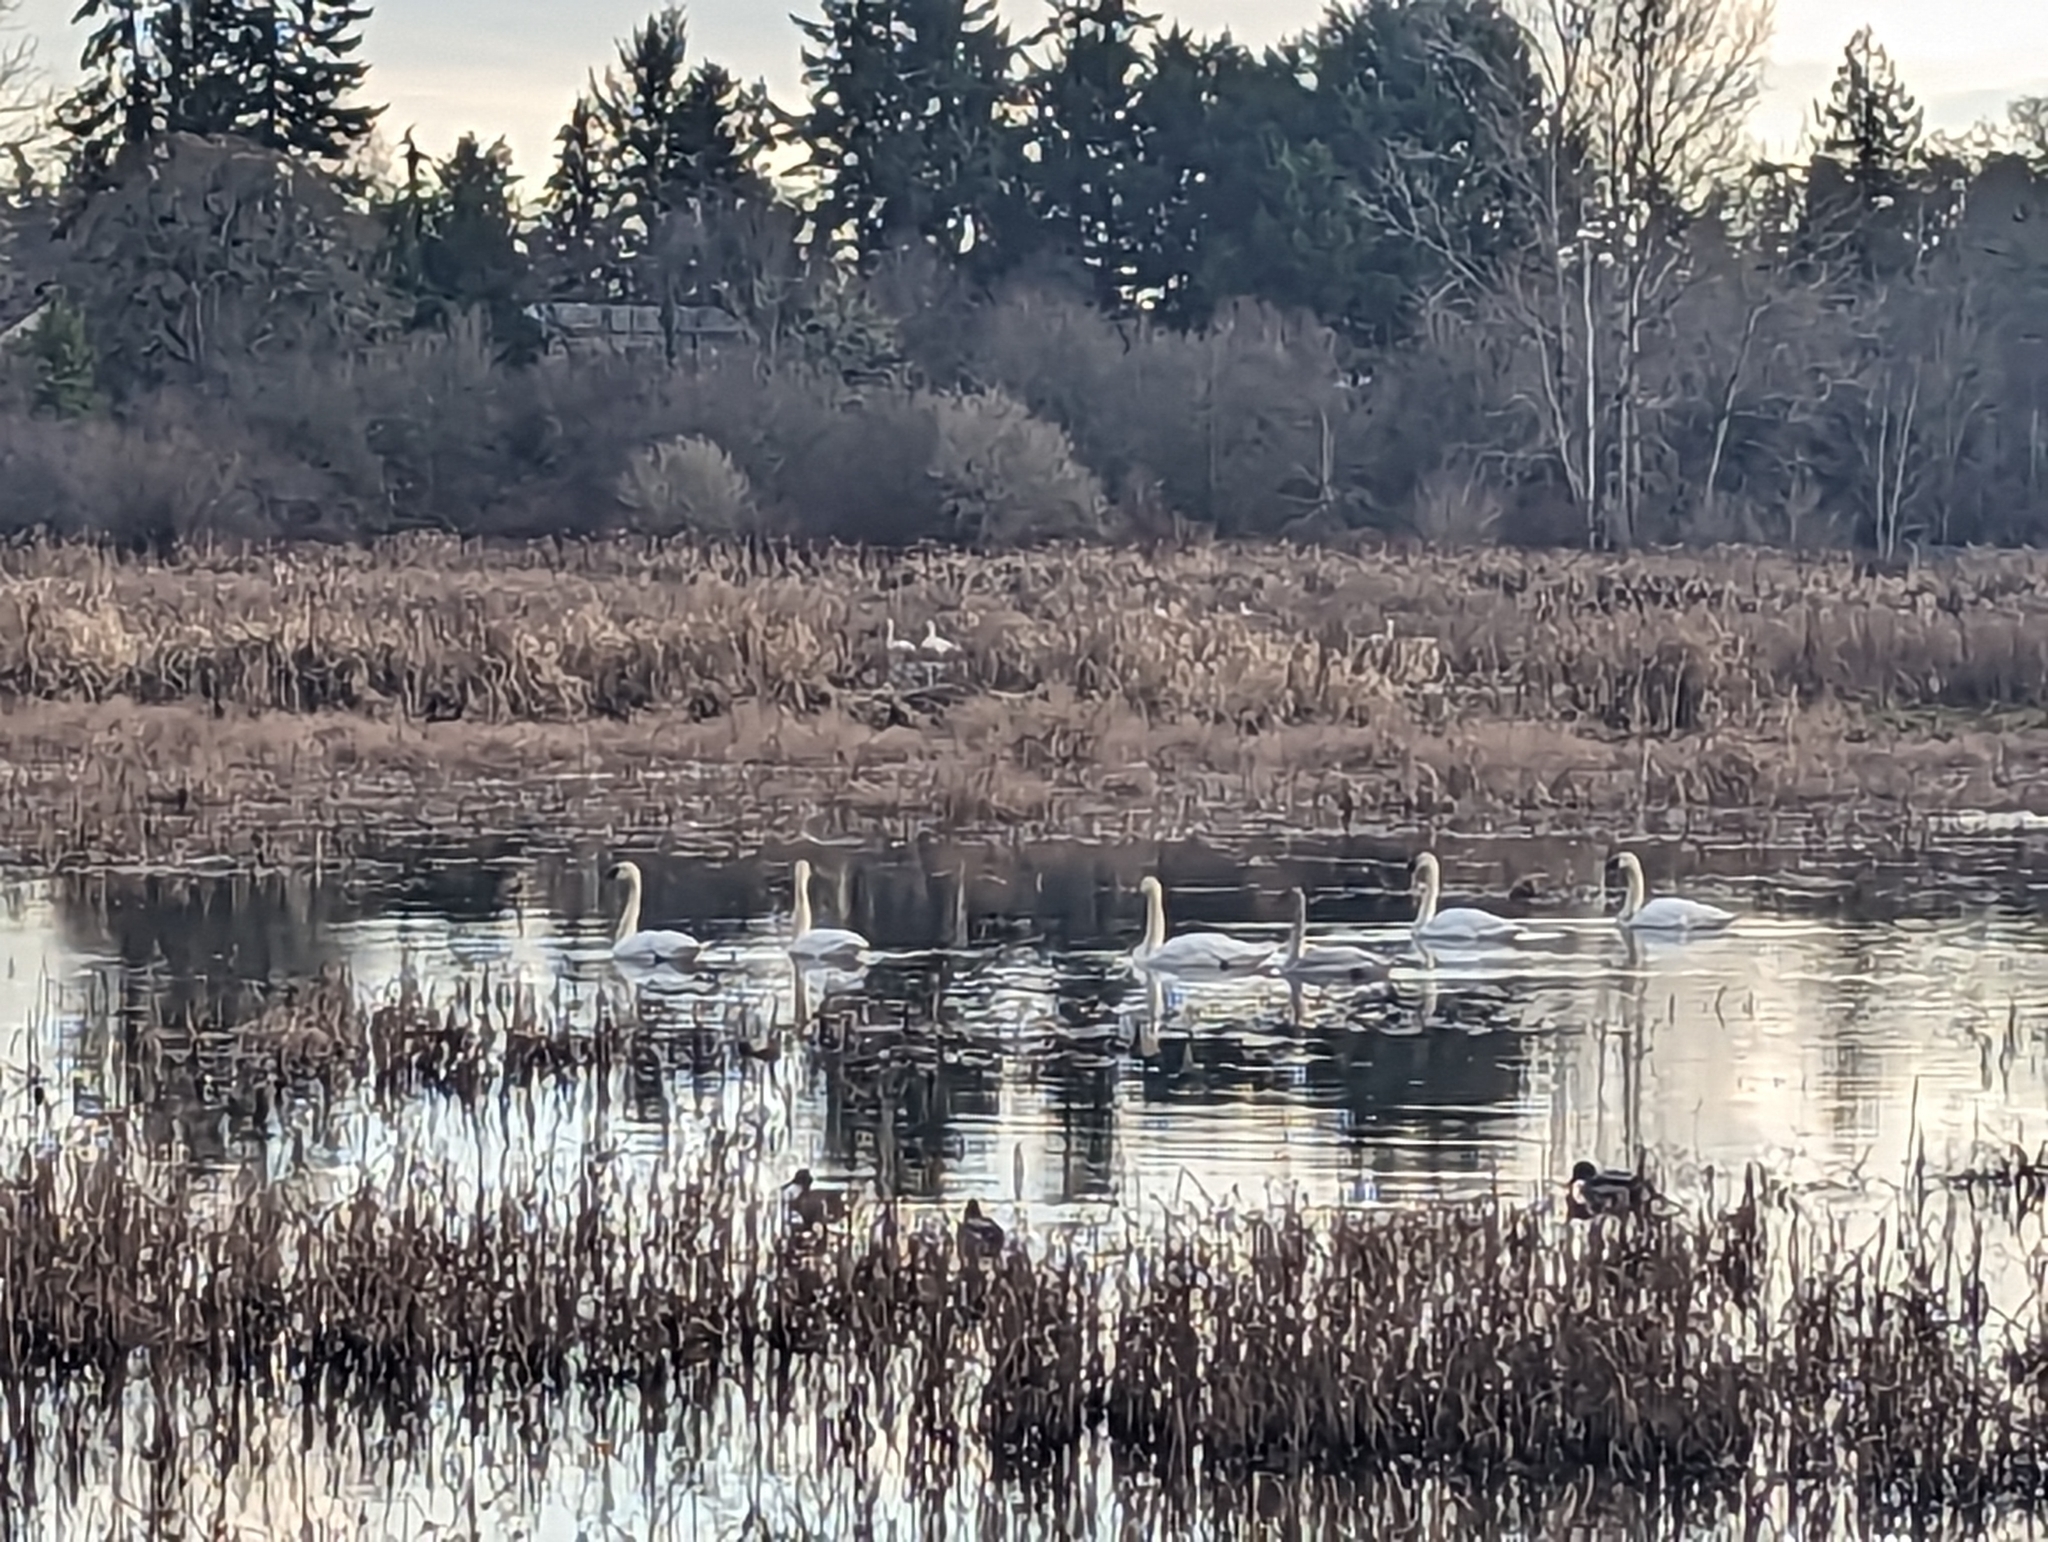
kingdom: Animalia
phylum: Chordata
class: Aves
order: Anseriformes
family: Anatidae
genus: Cygnus
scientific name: Cygnus buccinator
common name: Trumpeter swan
